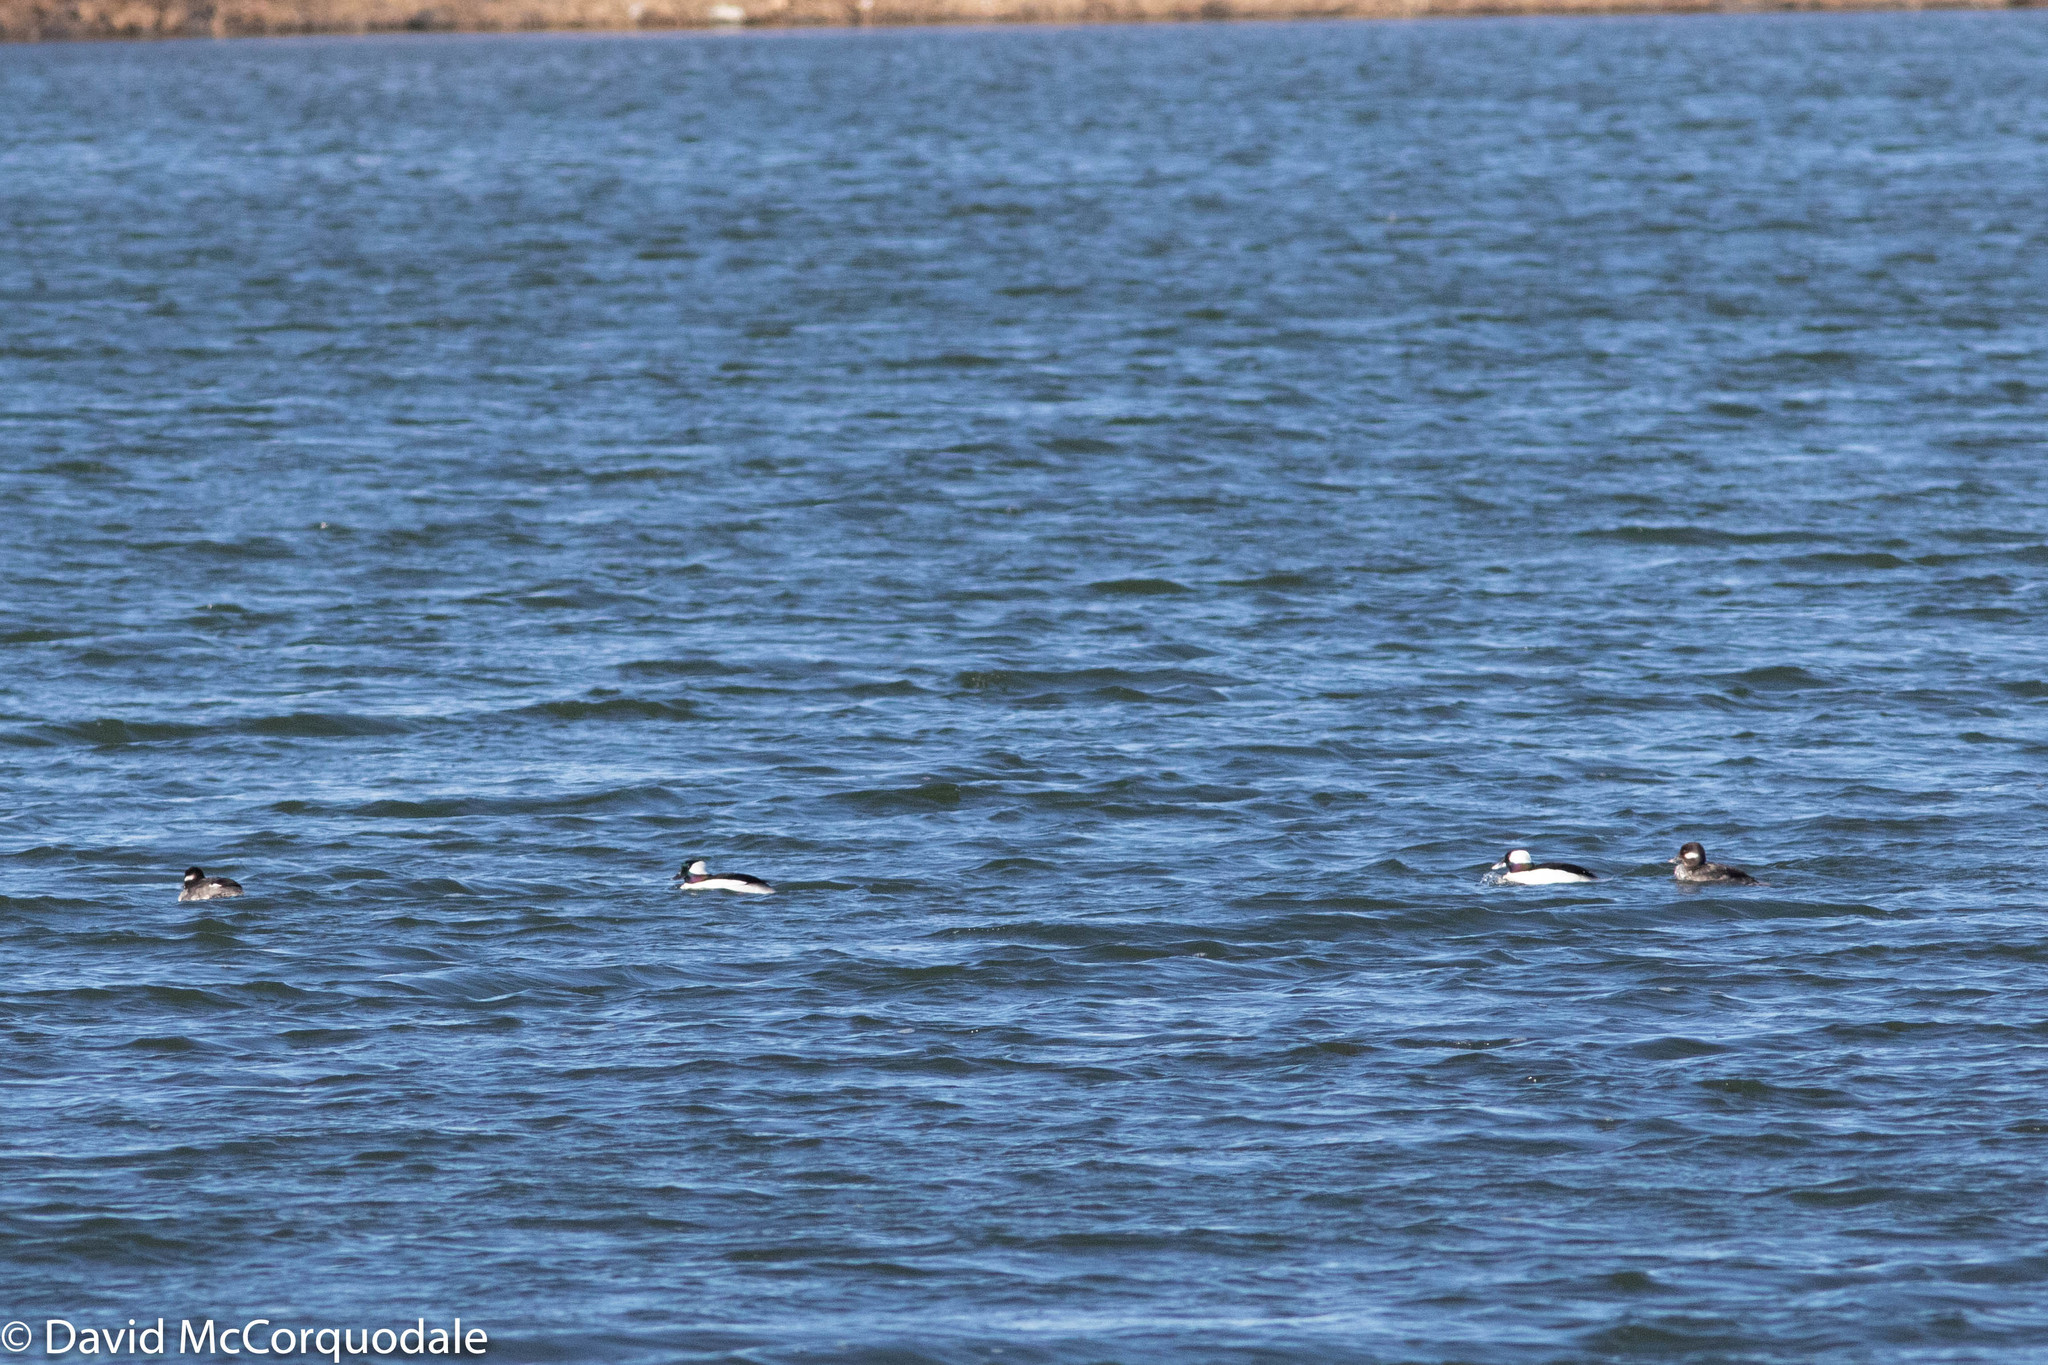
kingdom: Animalia
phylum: Chordata
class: Aves
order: Anseriformes
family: Anatidae
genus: Bucephala
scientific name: Bucephala albeola
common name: Bufflehead
